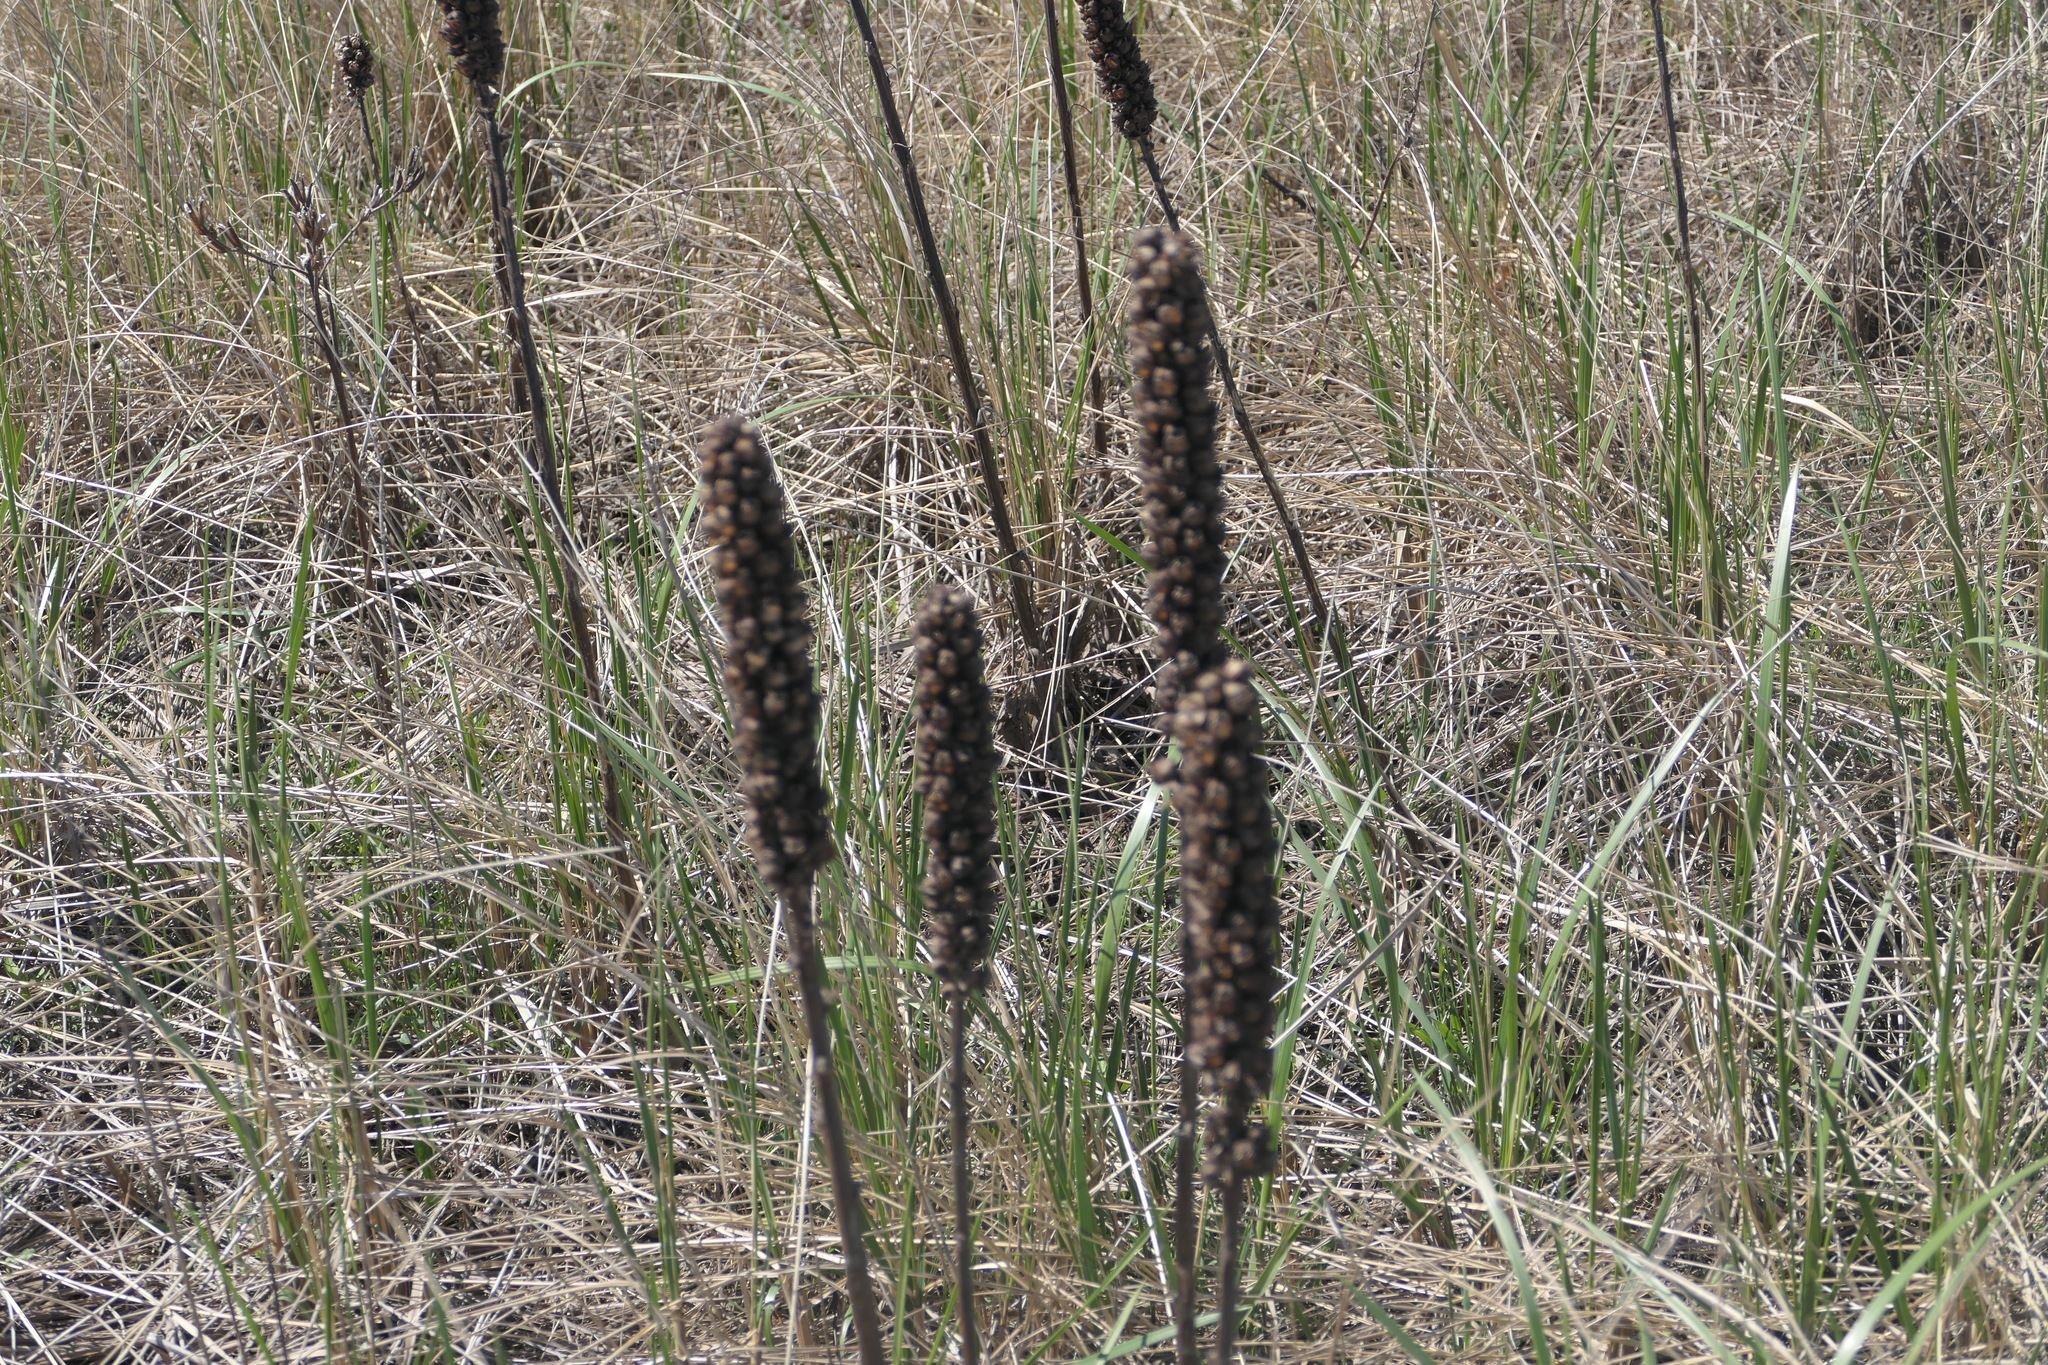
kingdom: Plantae
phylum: Tracheophyta
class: Magnoliopsida
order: Lamiales
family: Scrophulariaceae
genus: Verbascum
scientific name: Verbascum thapsus
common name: Common mullein
